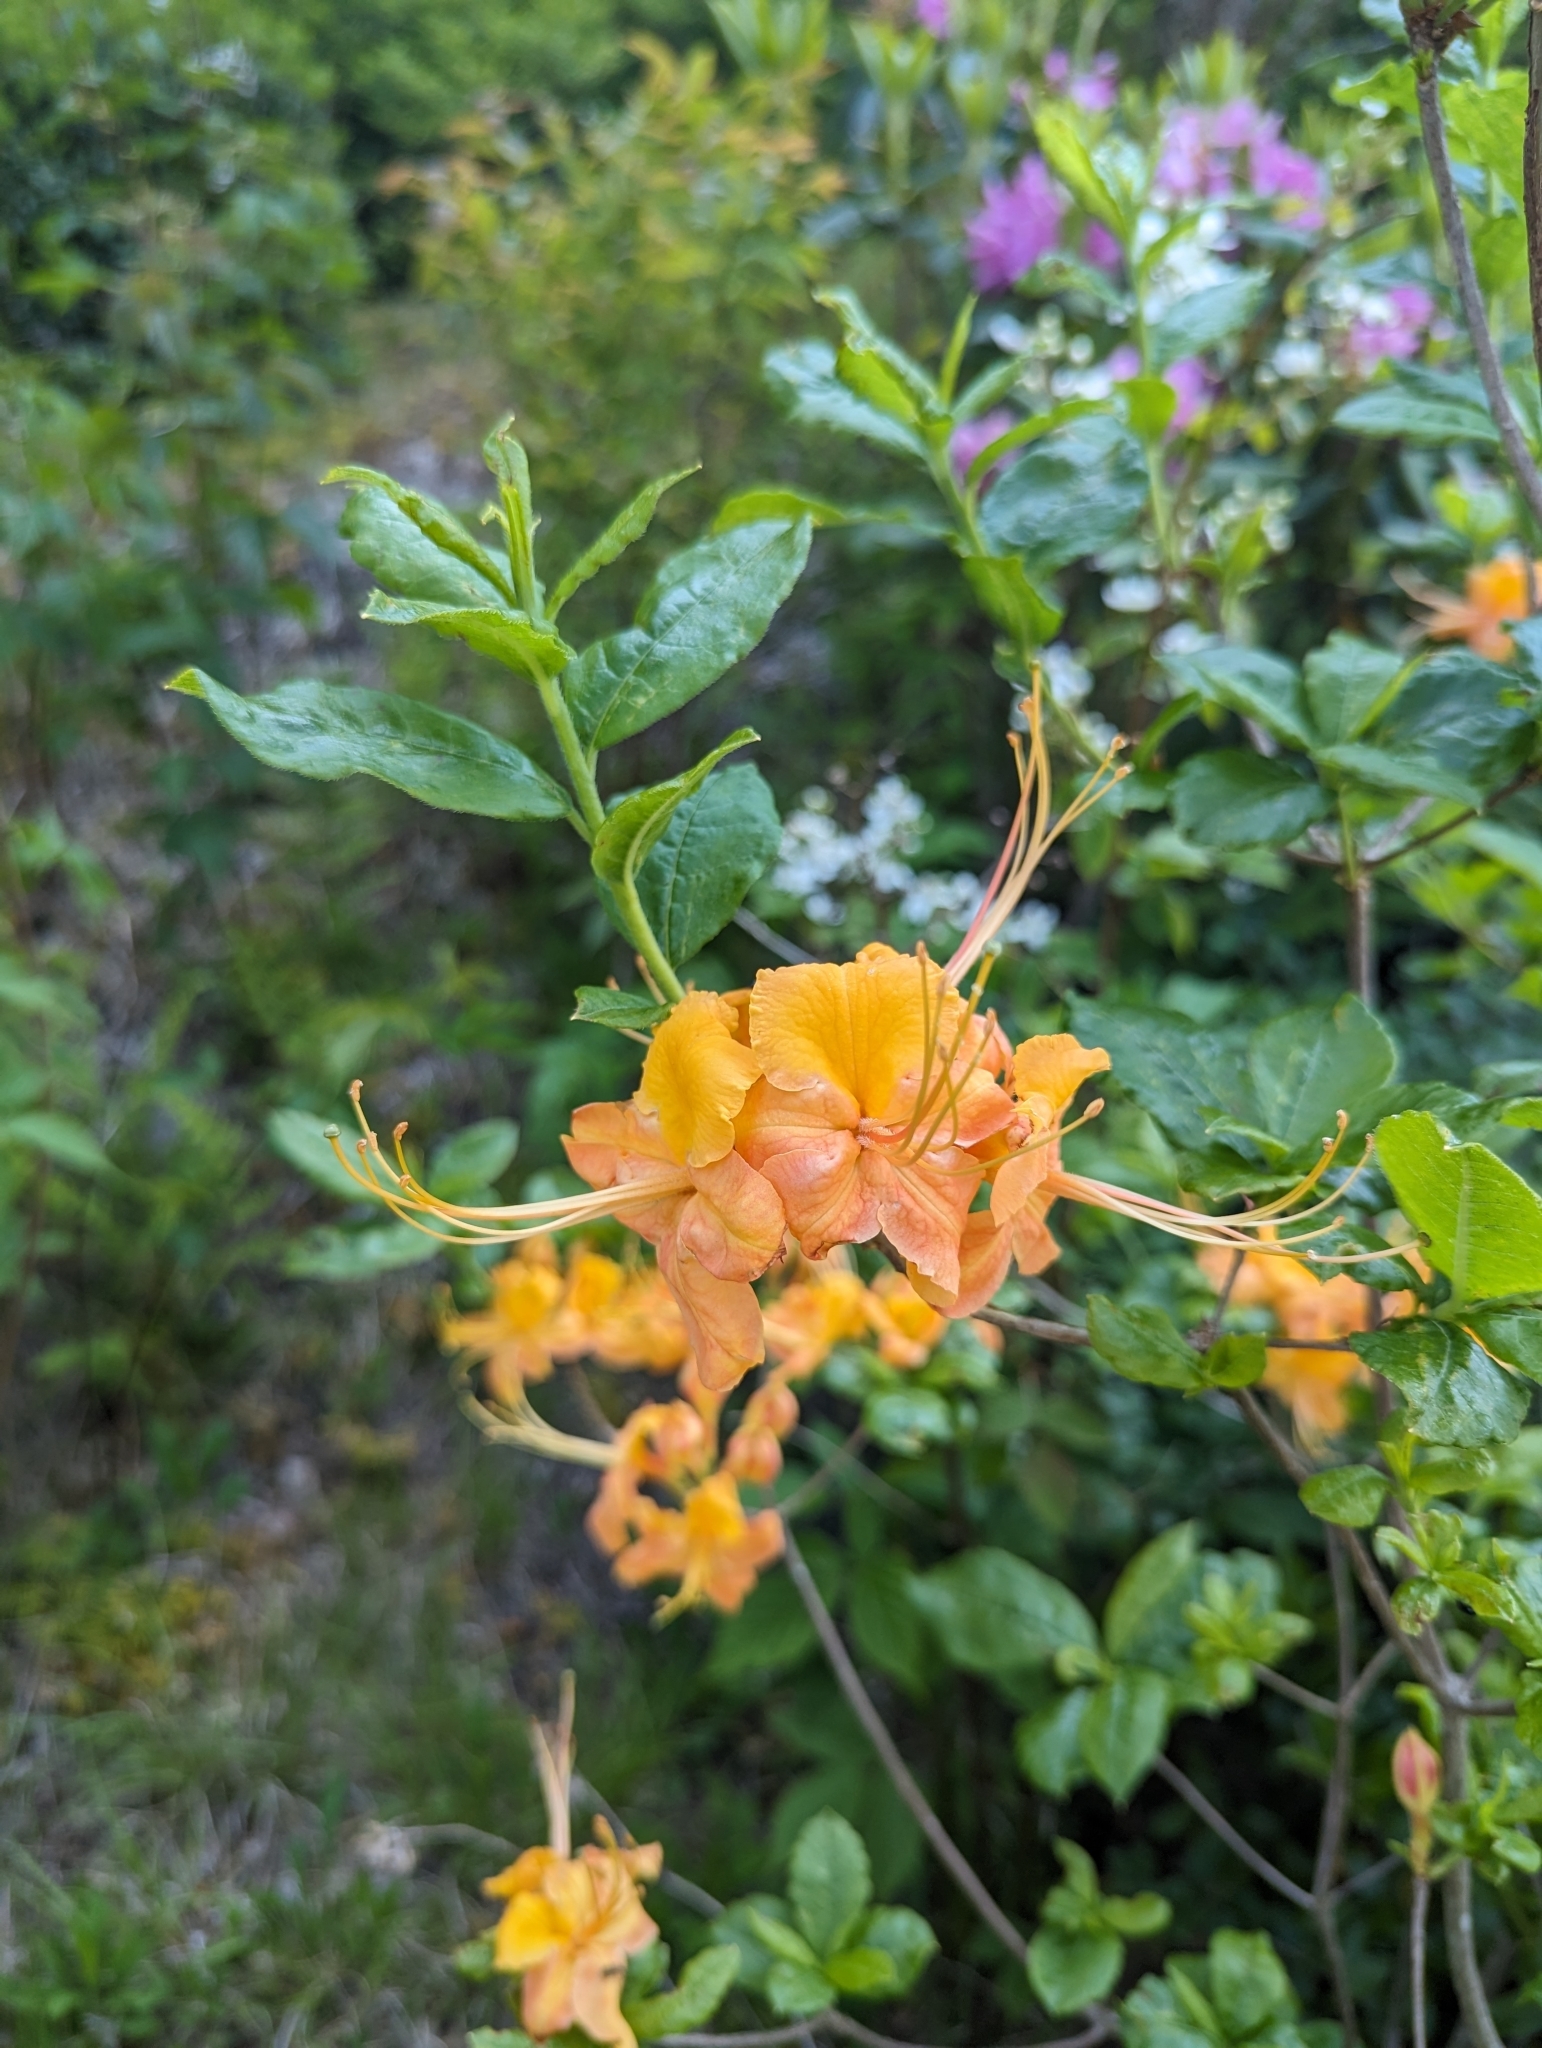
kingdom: Plantae
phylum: Tracheophyta
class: Magnoliopsida
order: Ericales
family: Ericaceae
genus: Rhododendron
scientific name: Rhododendron calendulaceum
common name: Flame azalea
